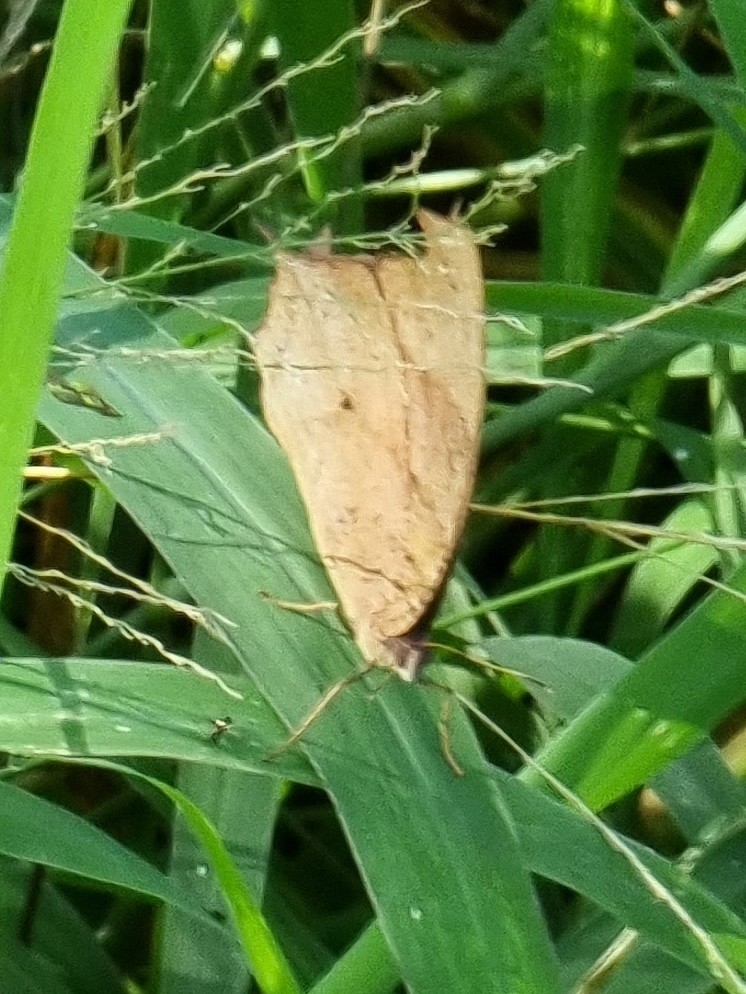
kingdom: Animalia
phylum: Arthropoda
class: Insecta
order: Lepidoptera
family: Nymphalidae
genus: Melanitis
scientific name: Melanitis leda
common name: Twilight brown
